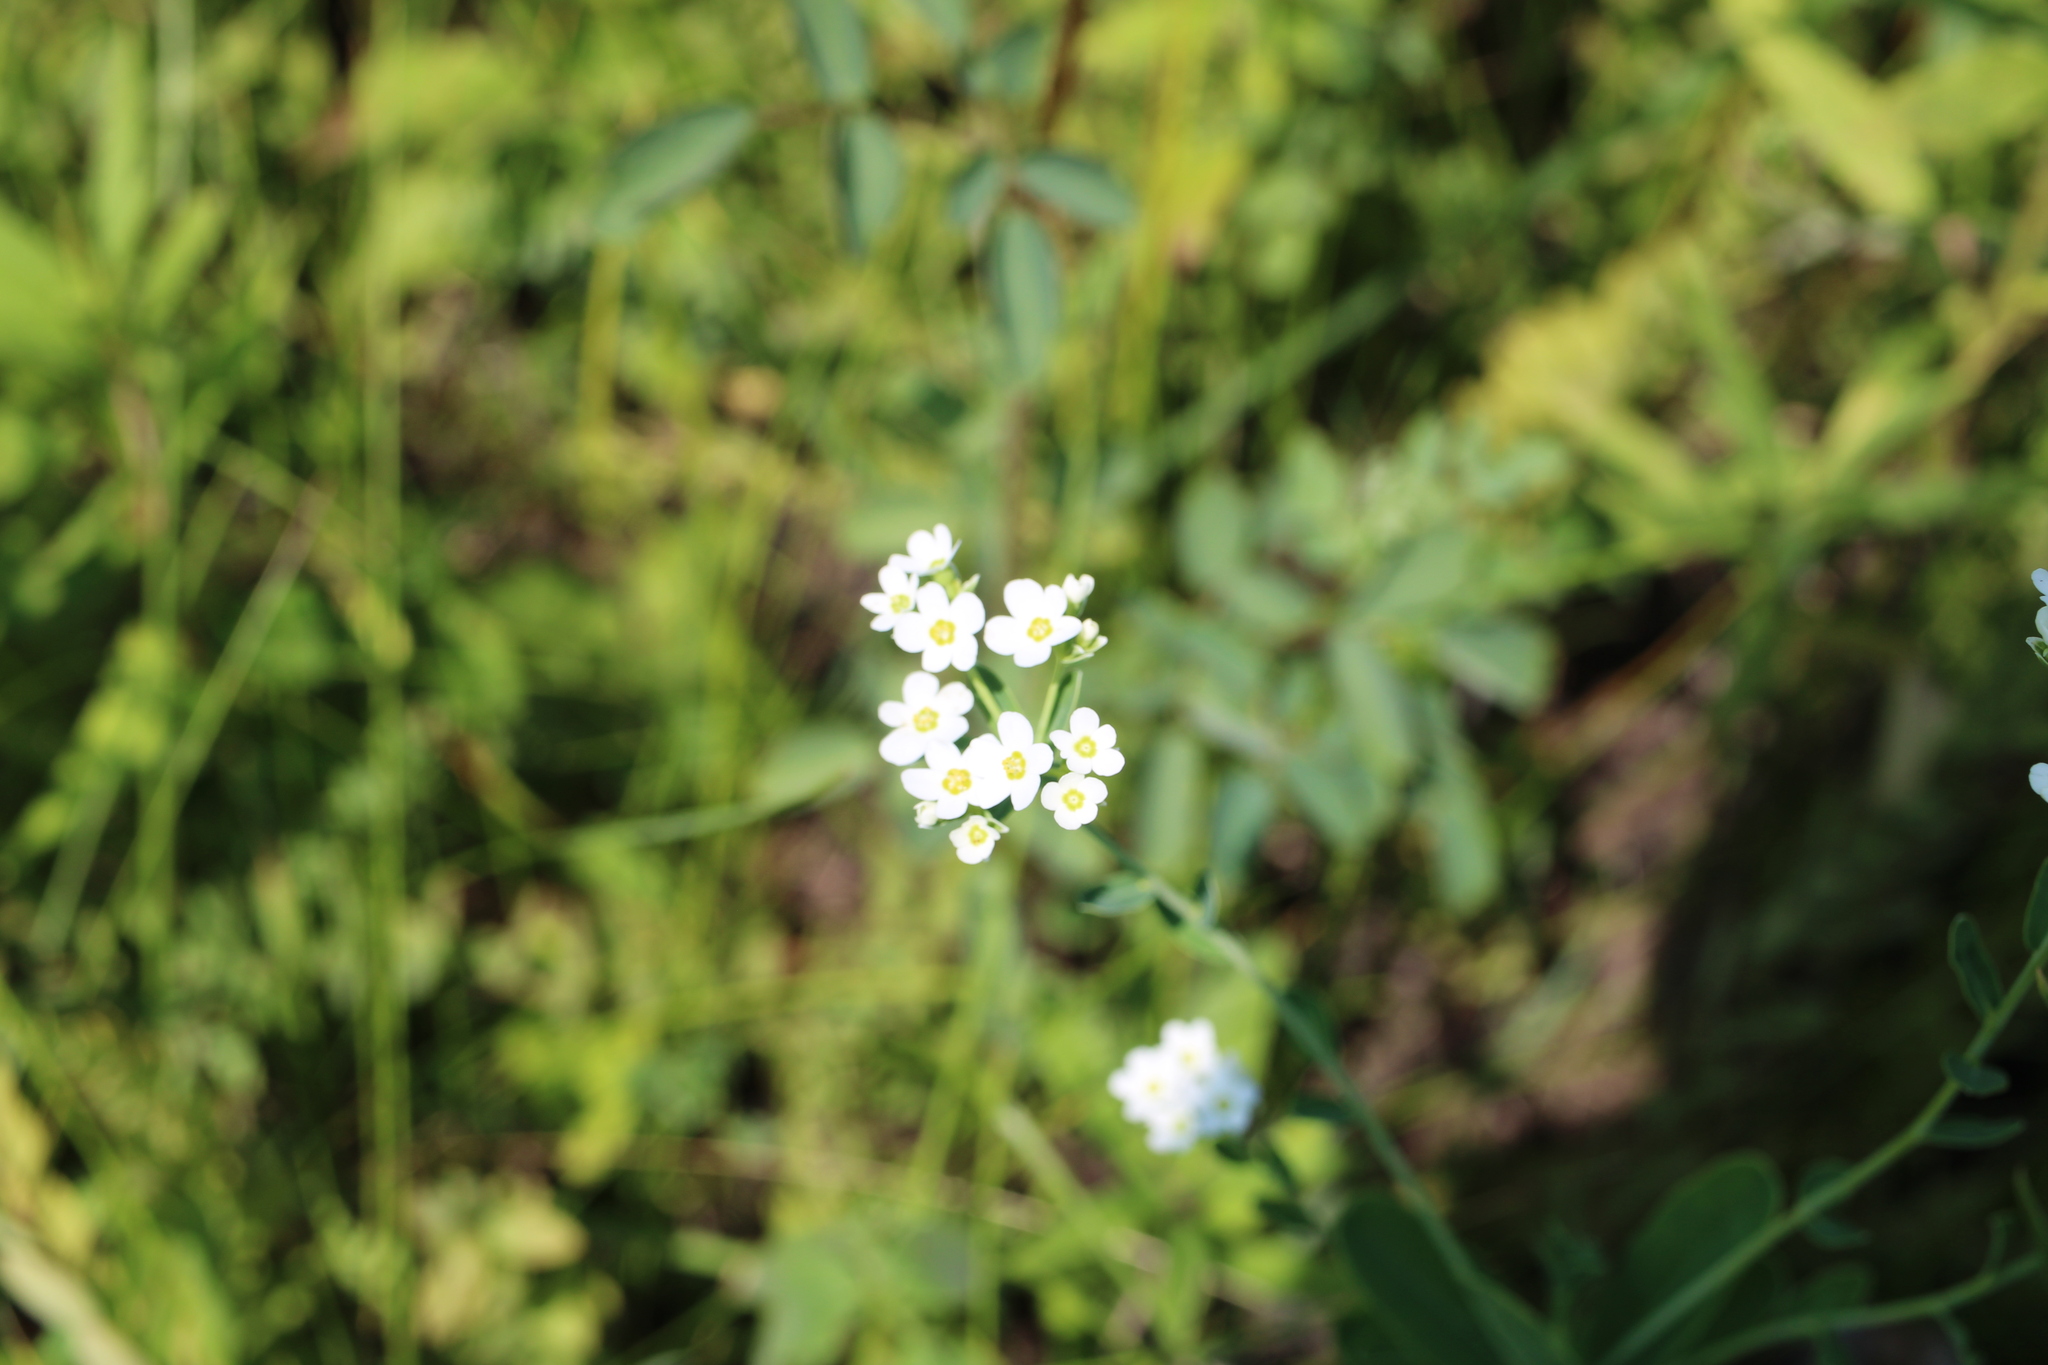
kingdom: Plantae
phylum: Tracheophyta
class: Magnoliopsida
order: Malpighiales
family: Euphorbiaceae
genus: Euphorbia
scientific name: Euphorbia corollata
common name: Flowering spurge
